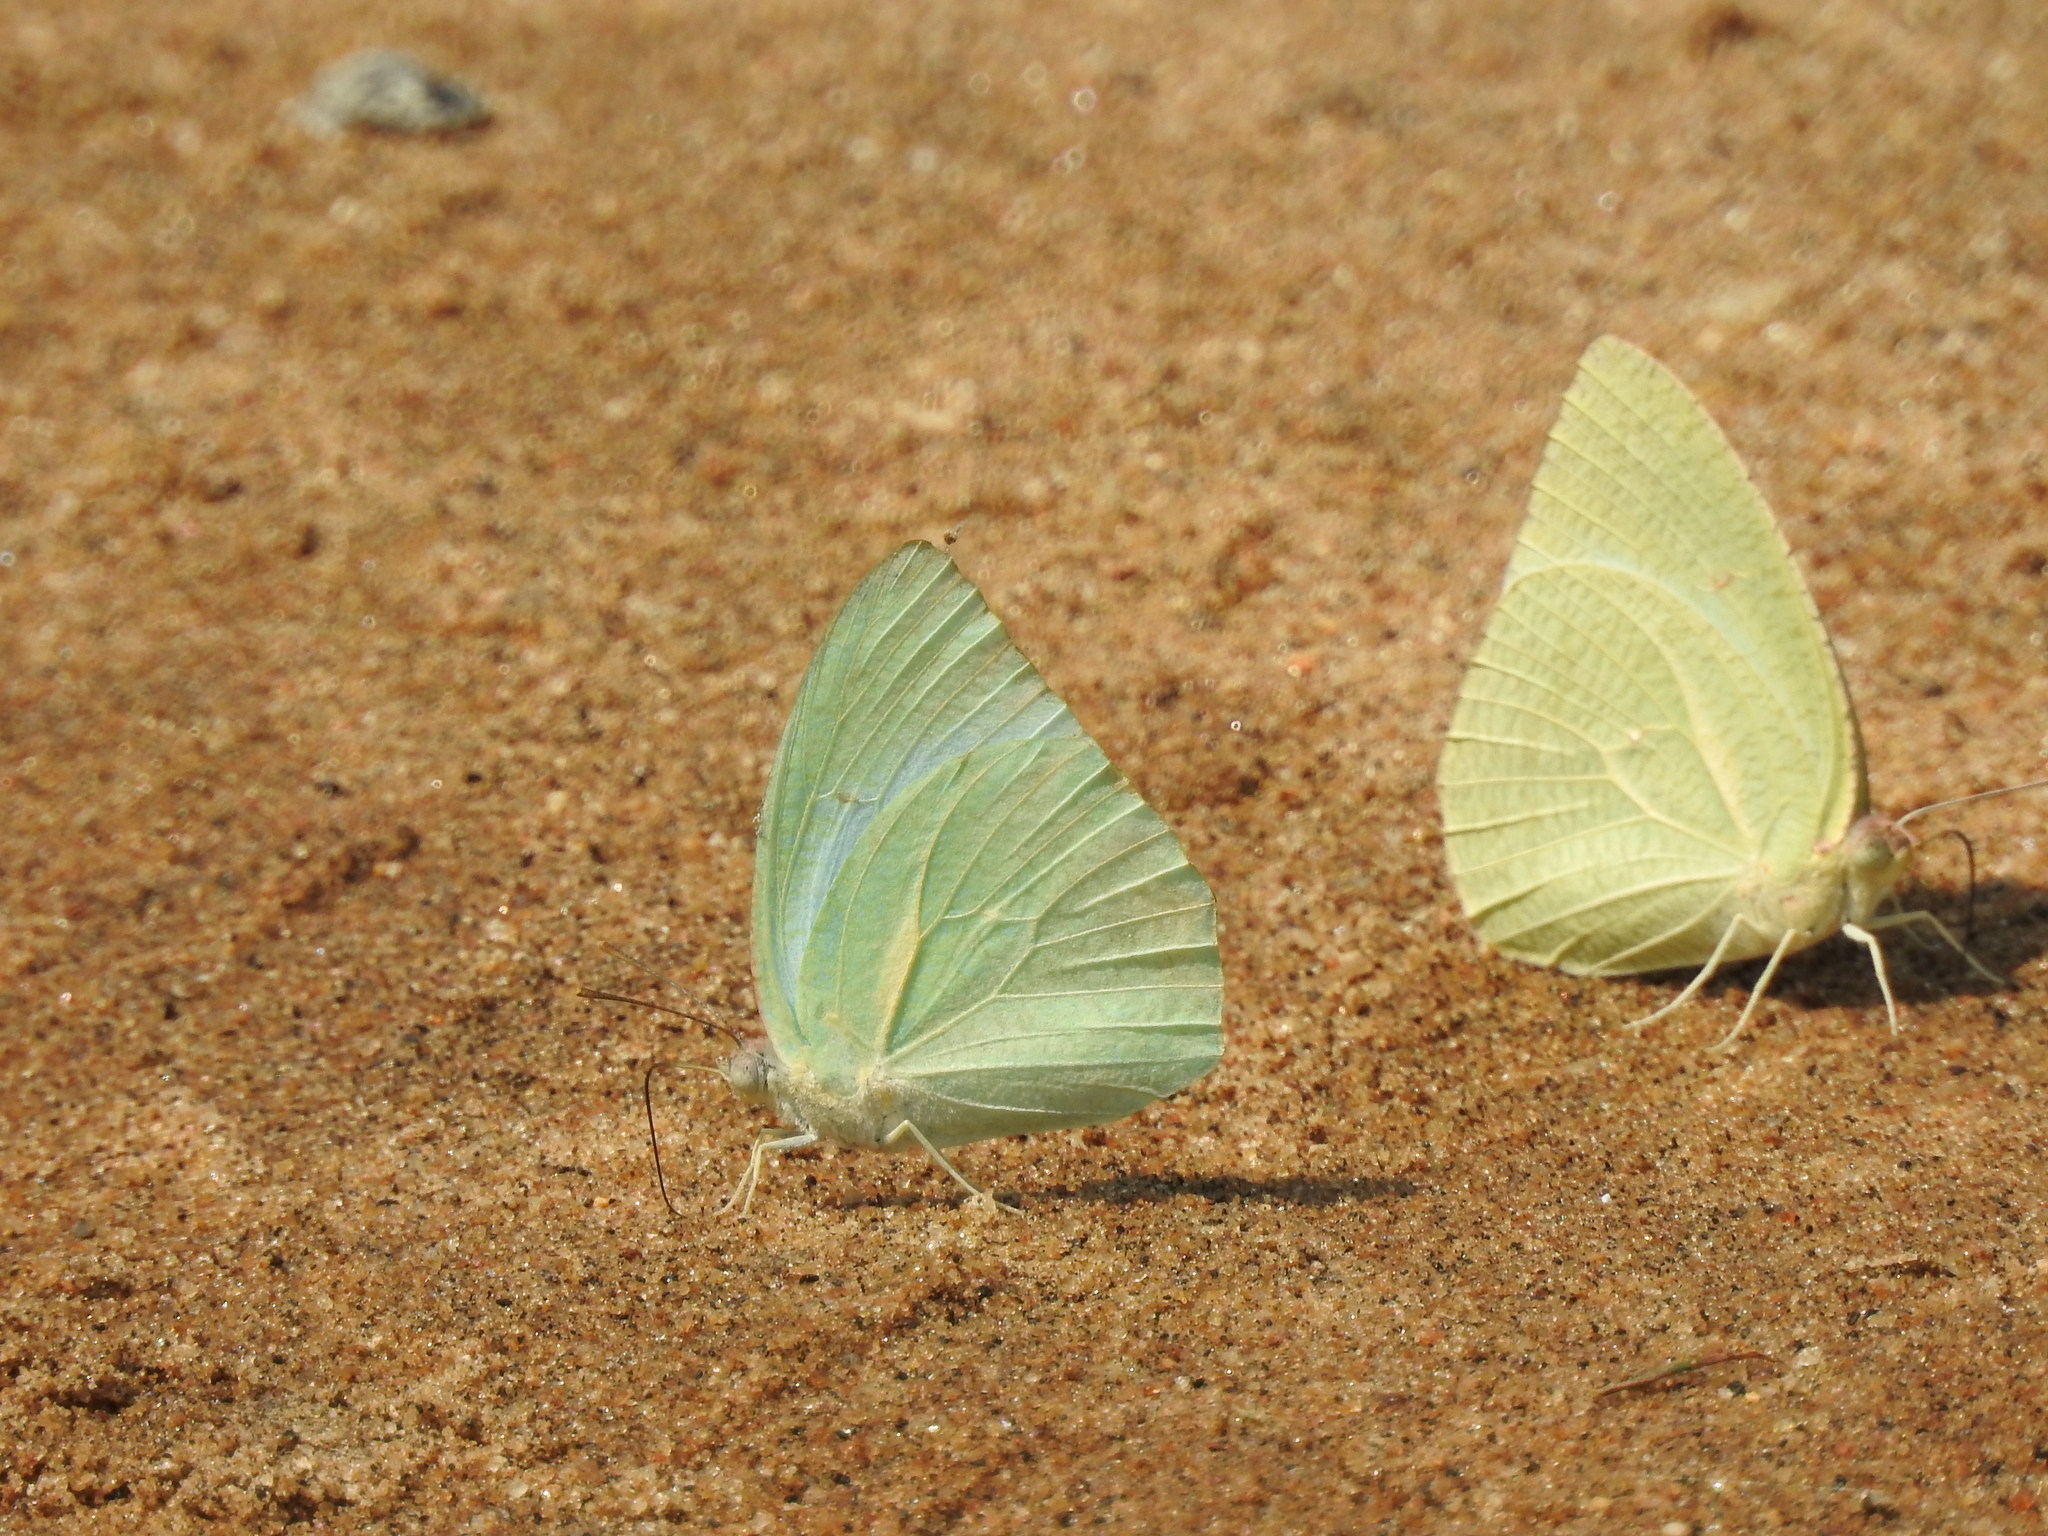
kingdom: Animalia
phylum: Arthropoda
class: Insecta
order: Lepidoptera
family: Pieridae
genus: Catopsilia
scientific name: Catopsilia pyranthe
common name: Mottled emigrant
